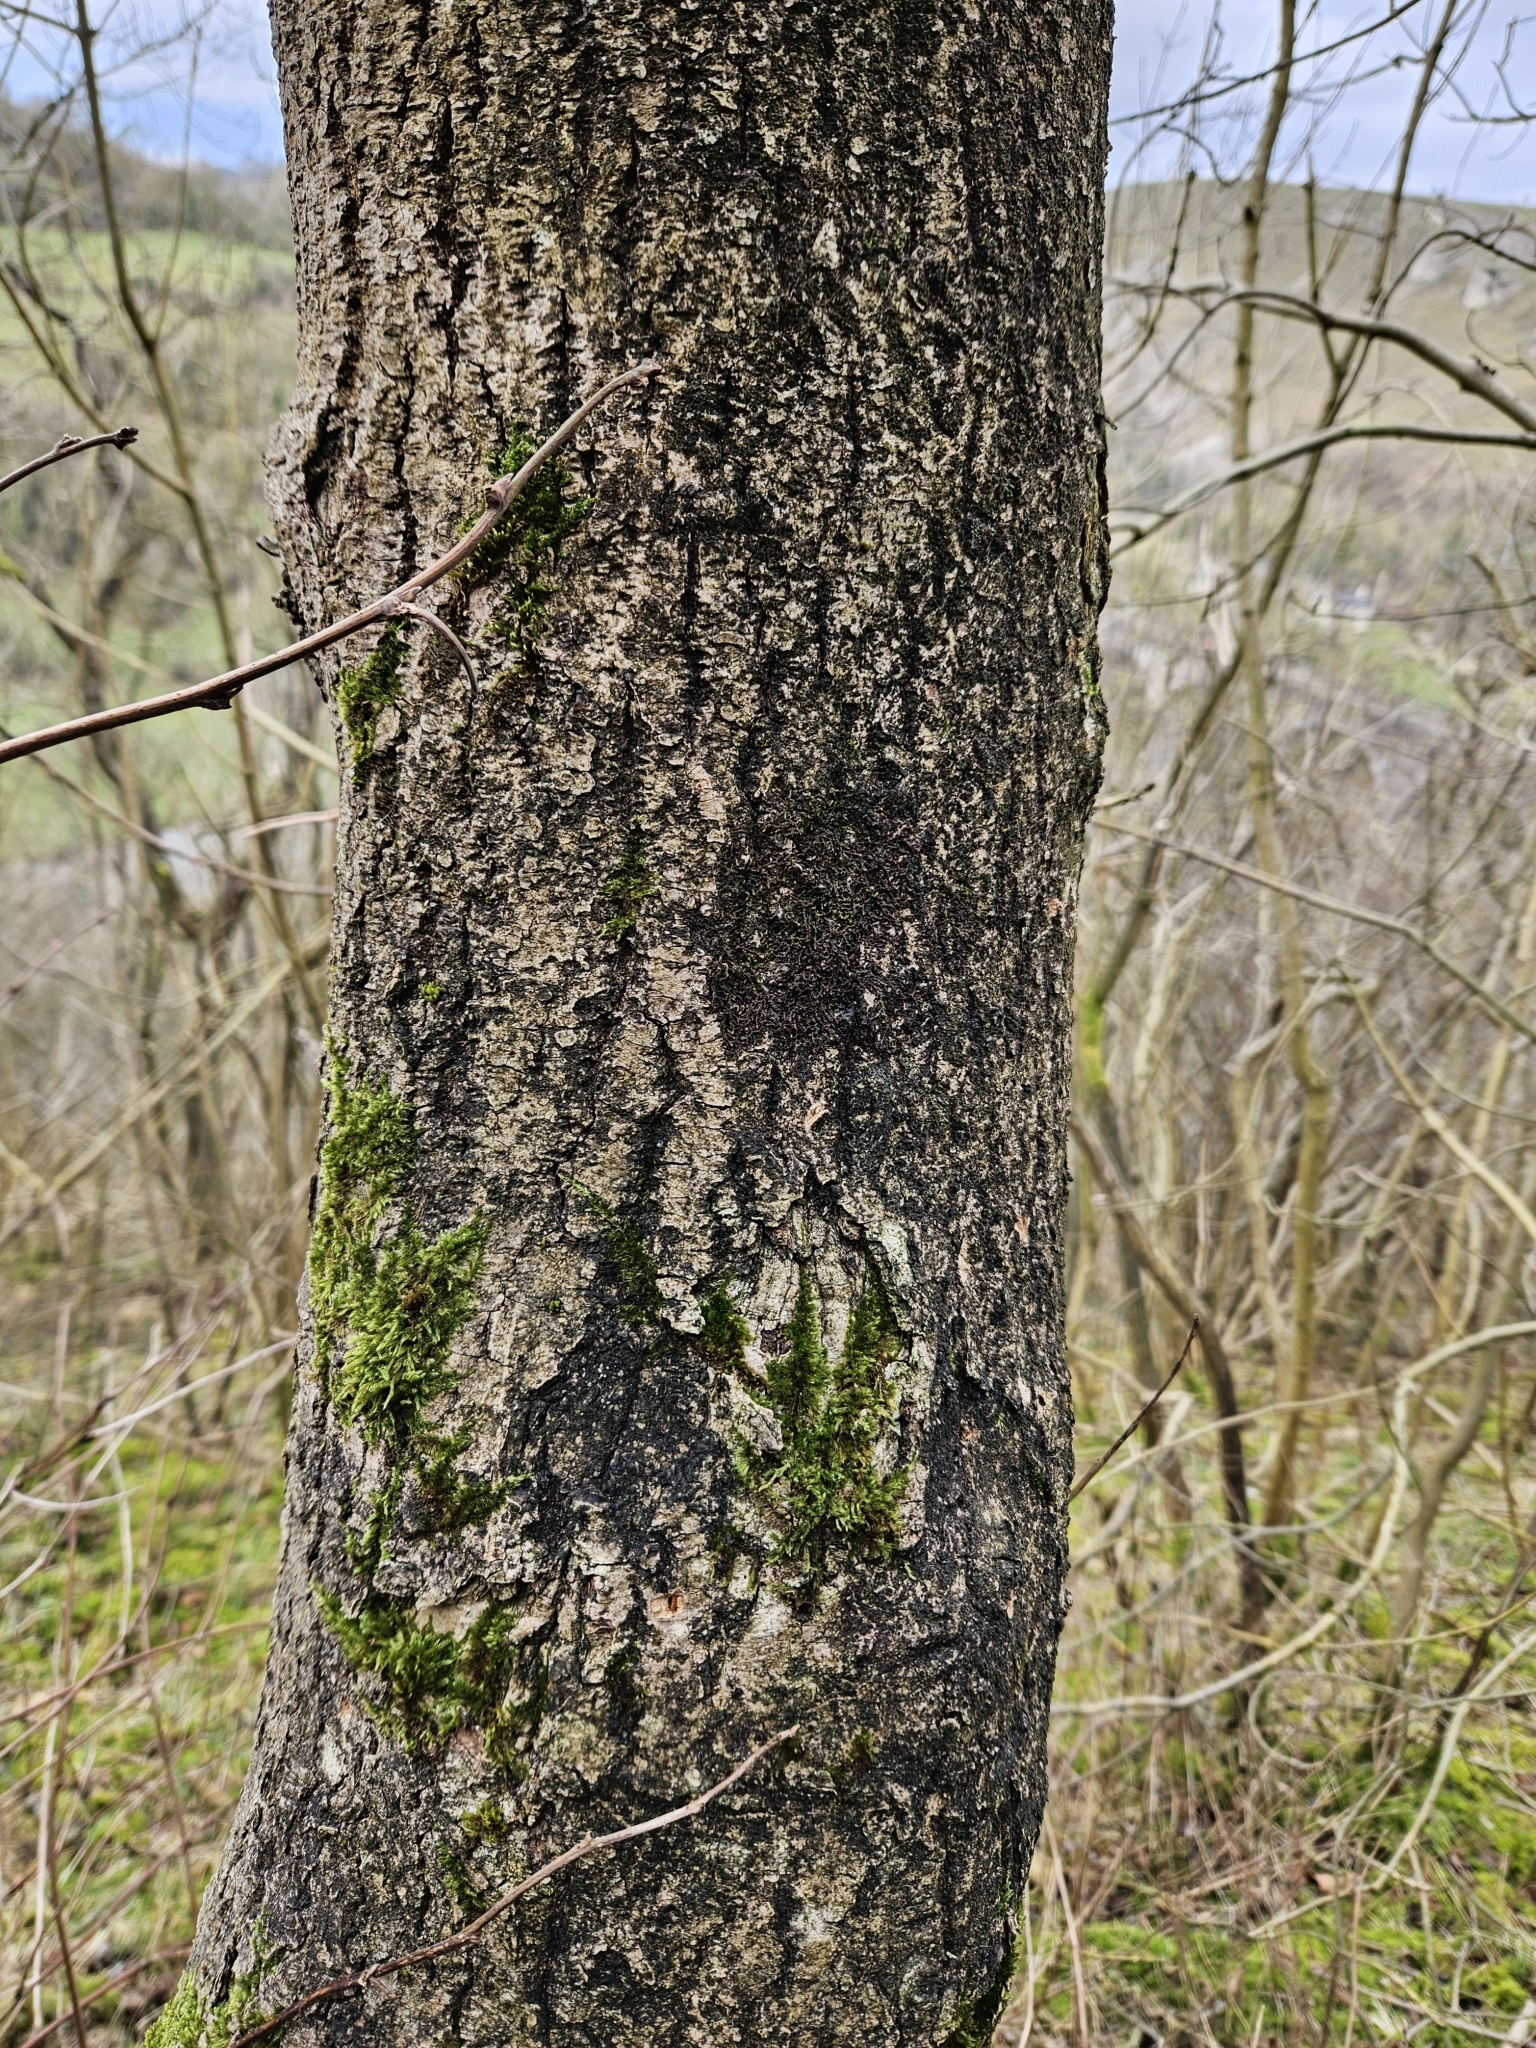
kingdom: Plantae
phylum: Marchantiophyta
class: Jungermanniopsida
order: Porellales
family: Frullaniaceae
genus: Frullania
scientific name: Frullania dilatata
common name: Dilated scalewort
